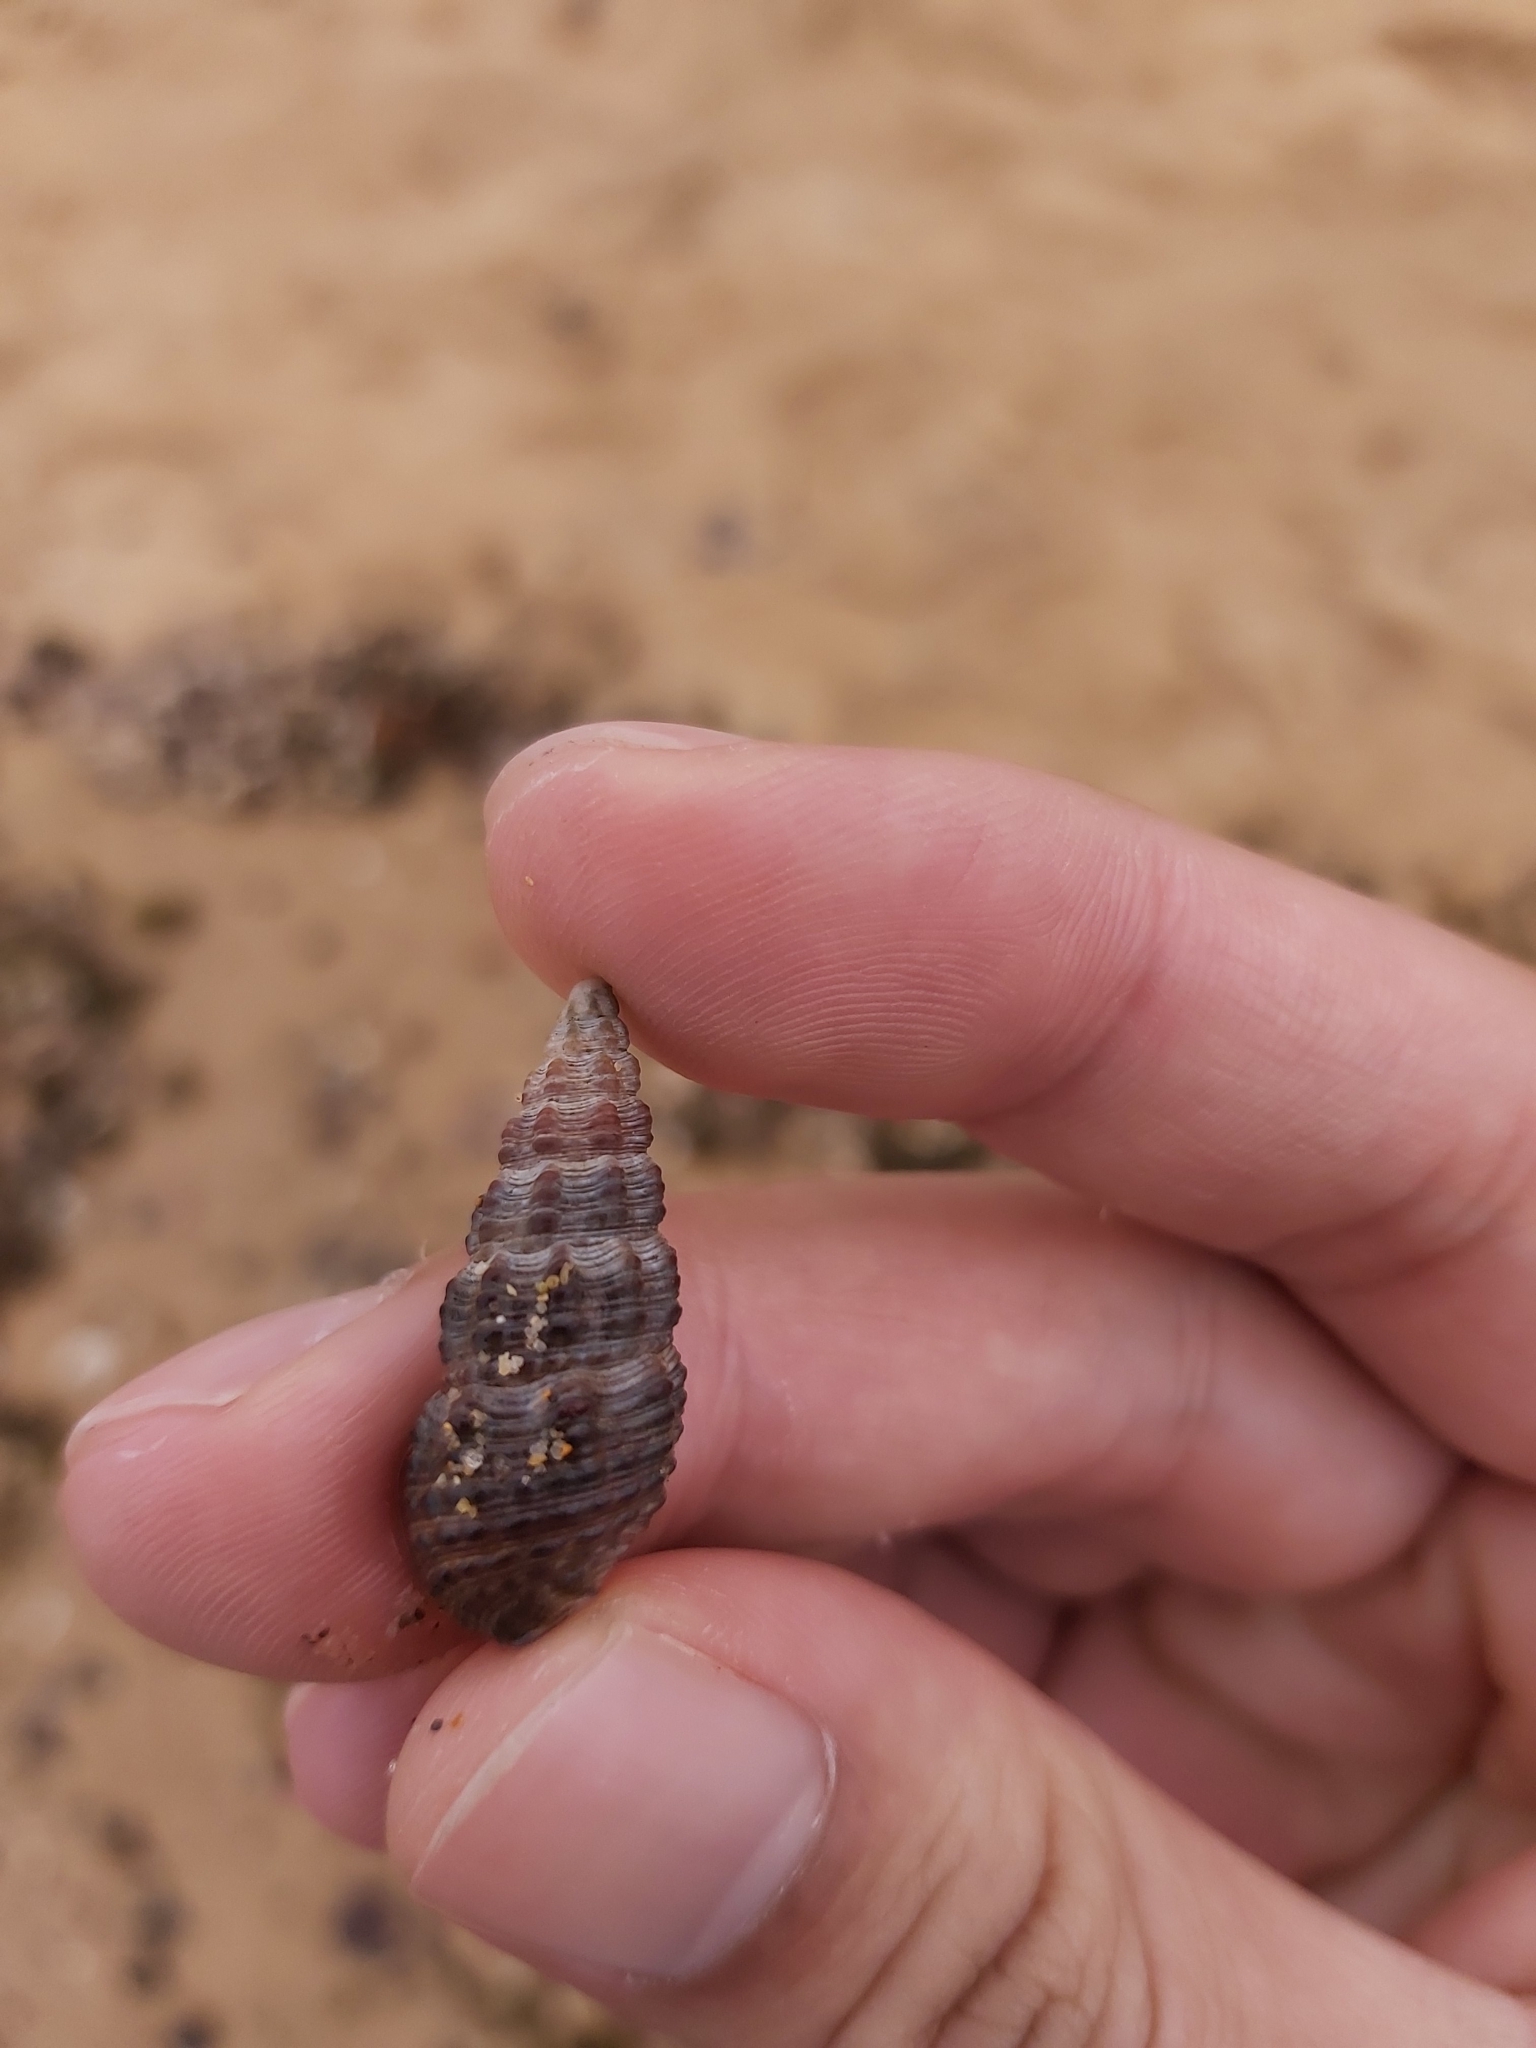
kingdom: Animalia
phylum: Mollusca
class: Gastropoda
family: Batillariidae
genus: Batillaria
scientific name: Batillaria australis
